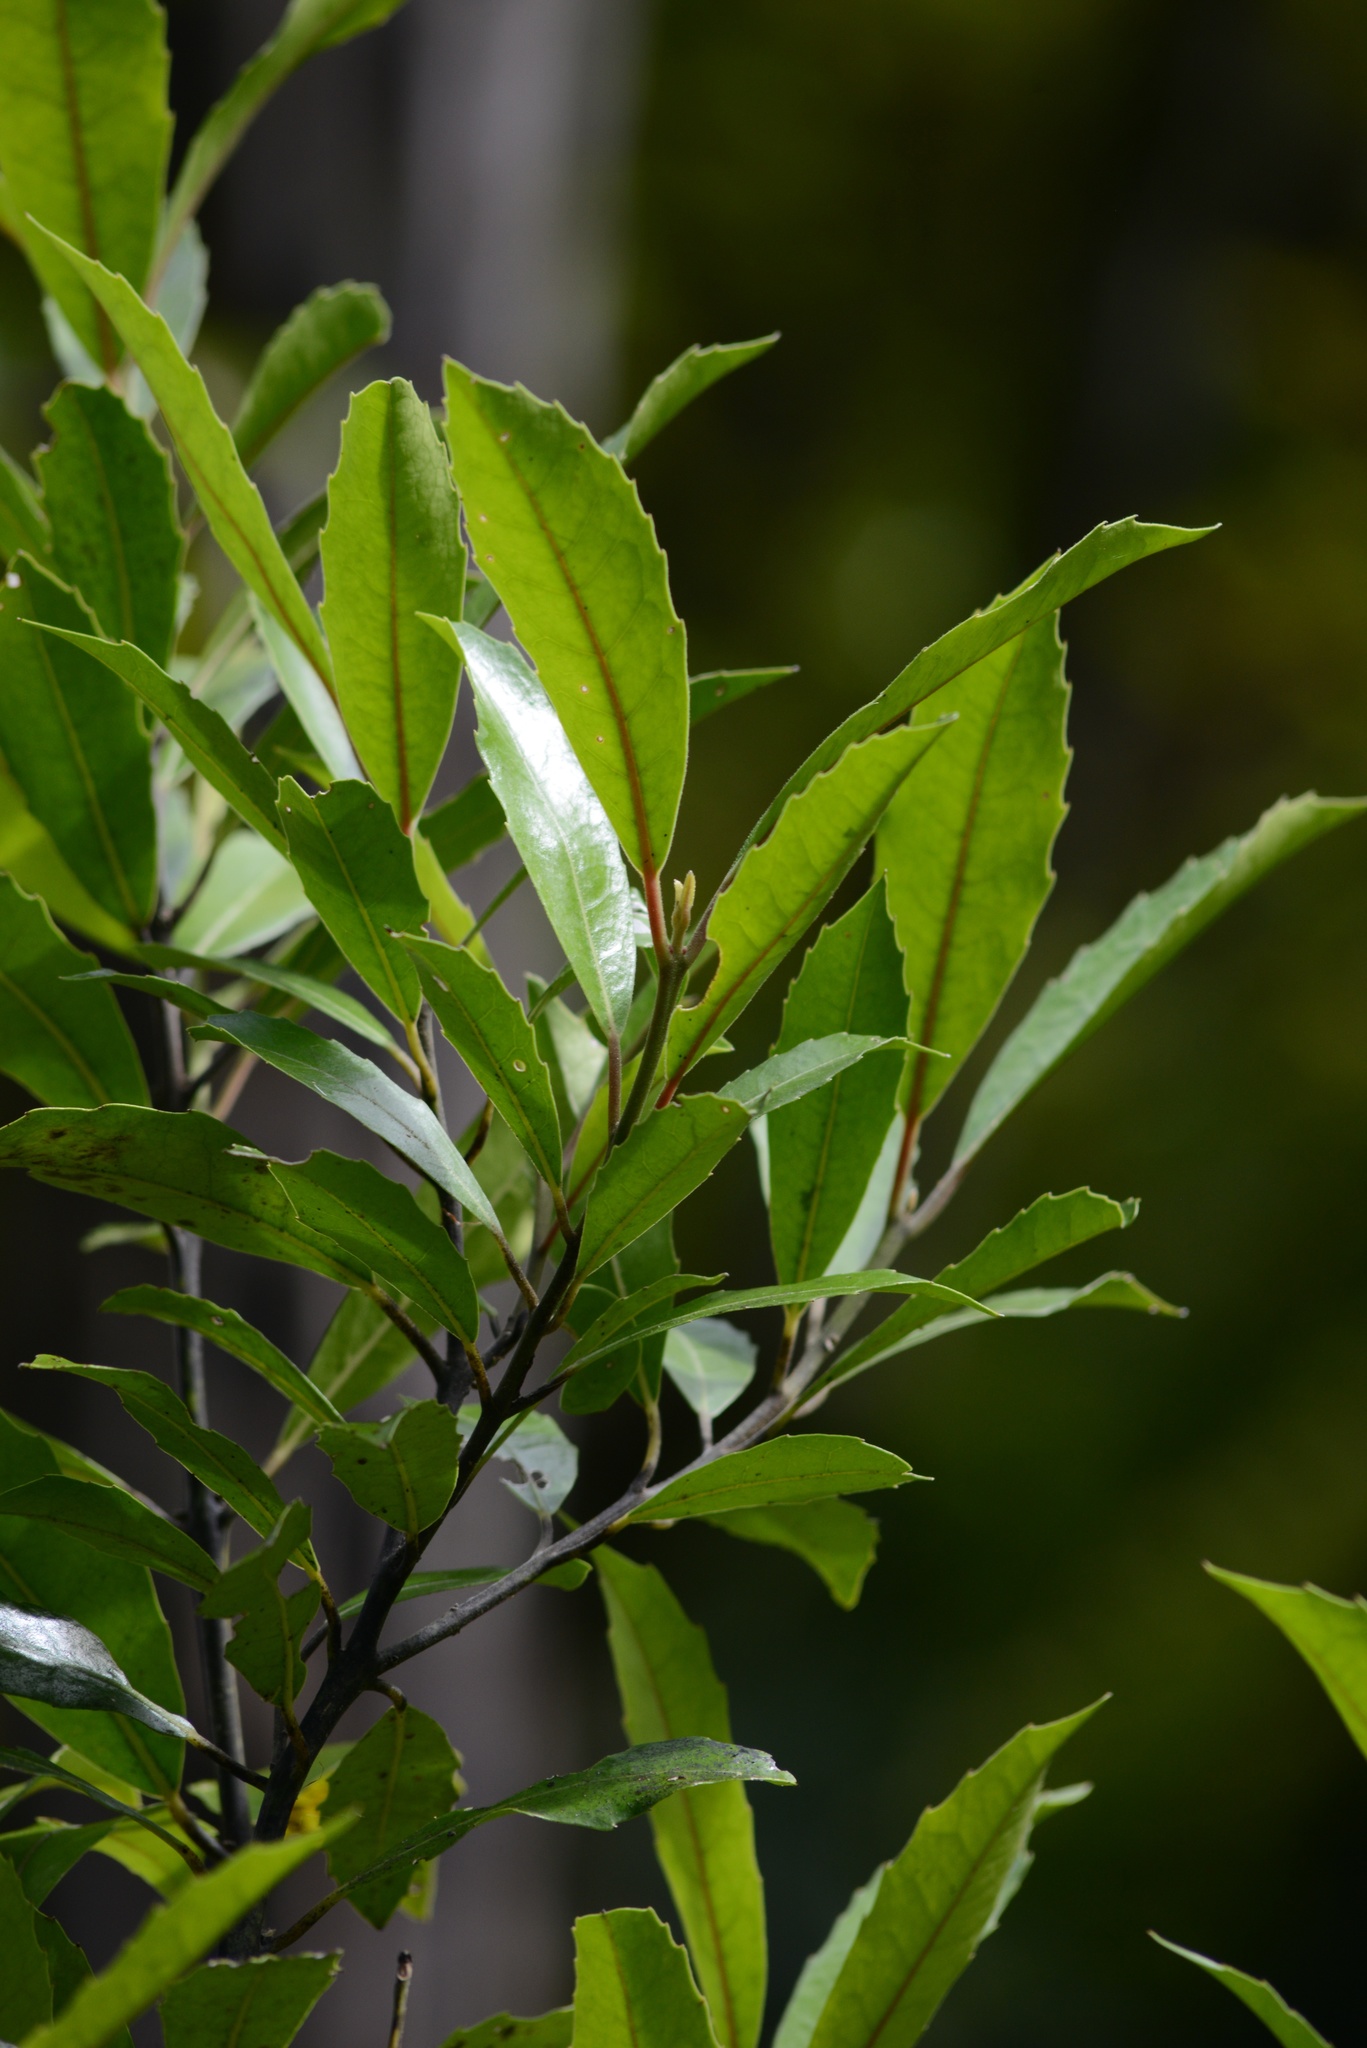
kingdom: Plantae
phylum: Tracheophyta
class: Magnoliopsida
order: Laurales
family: Monimiaceae
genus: Hedycarya
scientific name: Hedycarya arborea
